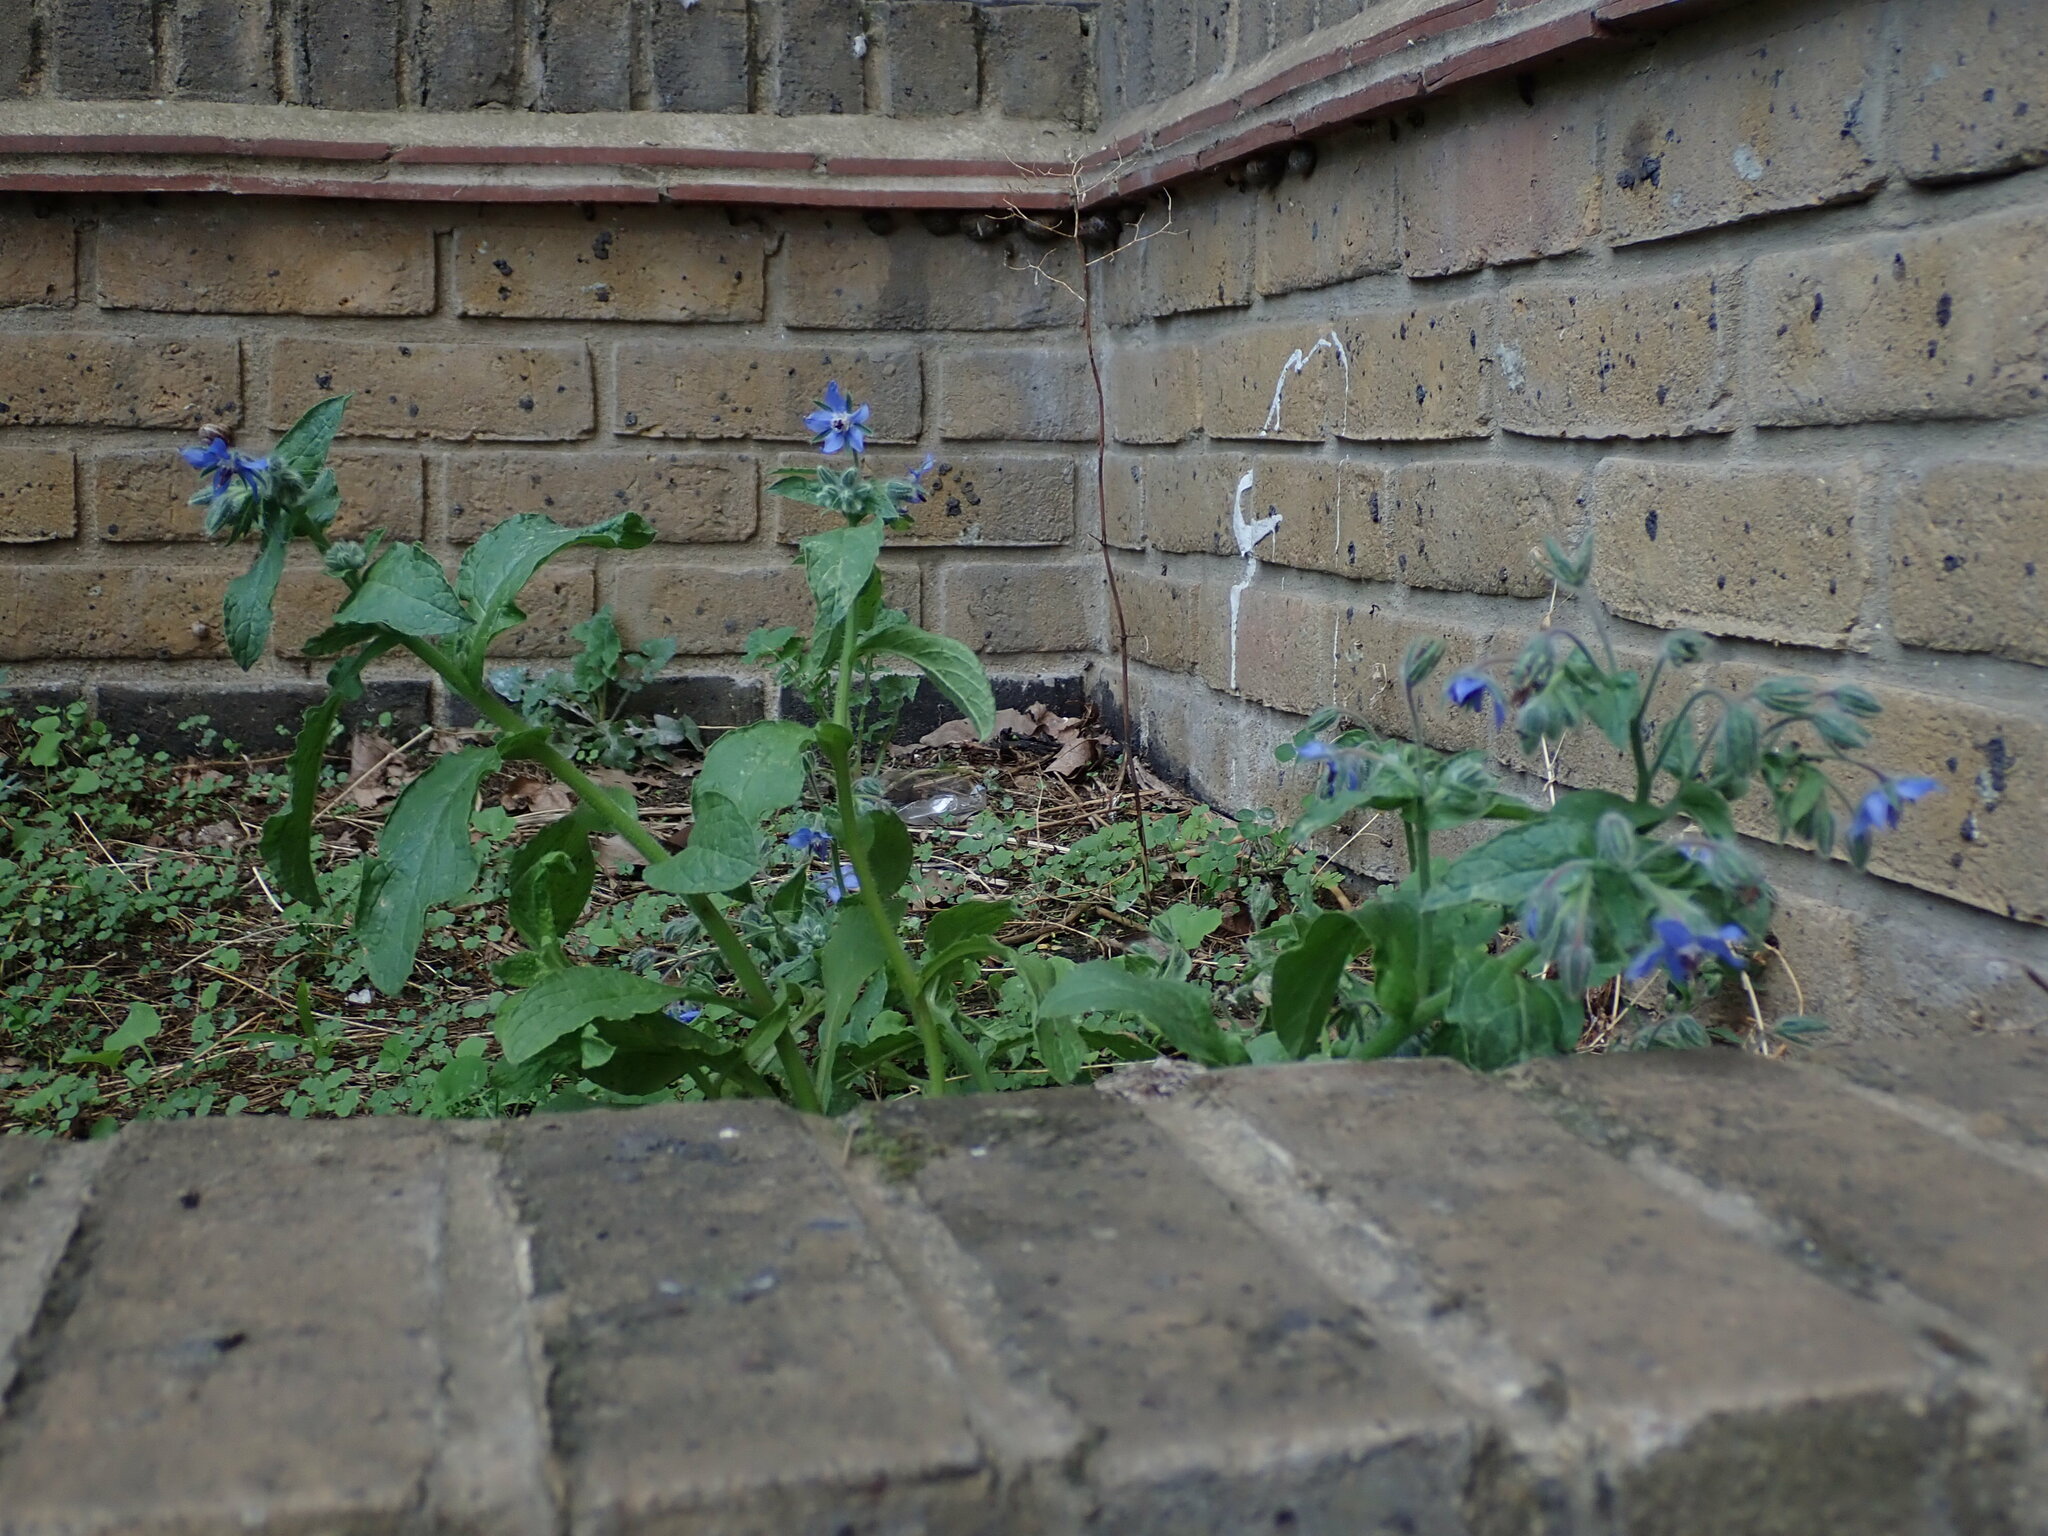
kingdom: Plantae
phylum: Tracheophyta
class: Magnoliopsida
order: Boraginales
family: Boraginaceae
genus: Borago
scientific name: Borago officinalis
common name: Borage
